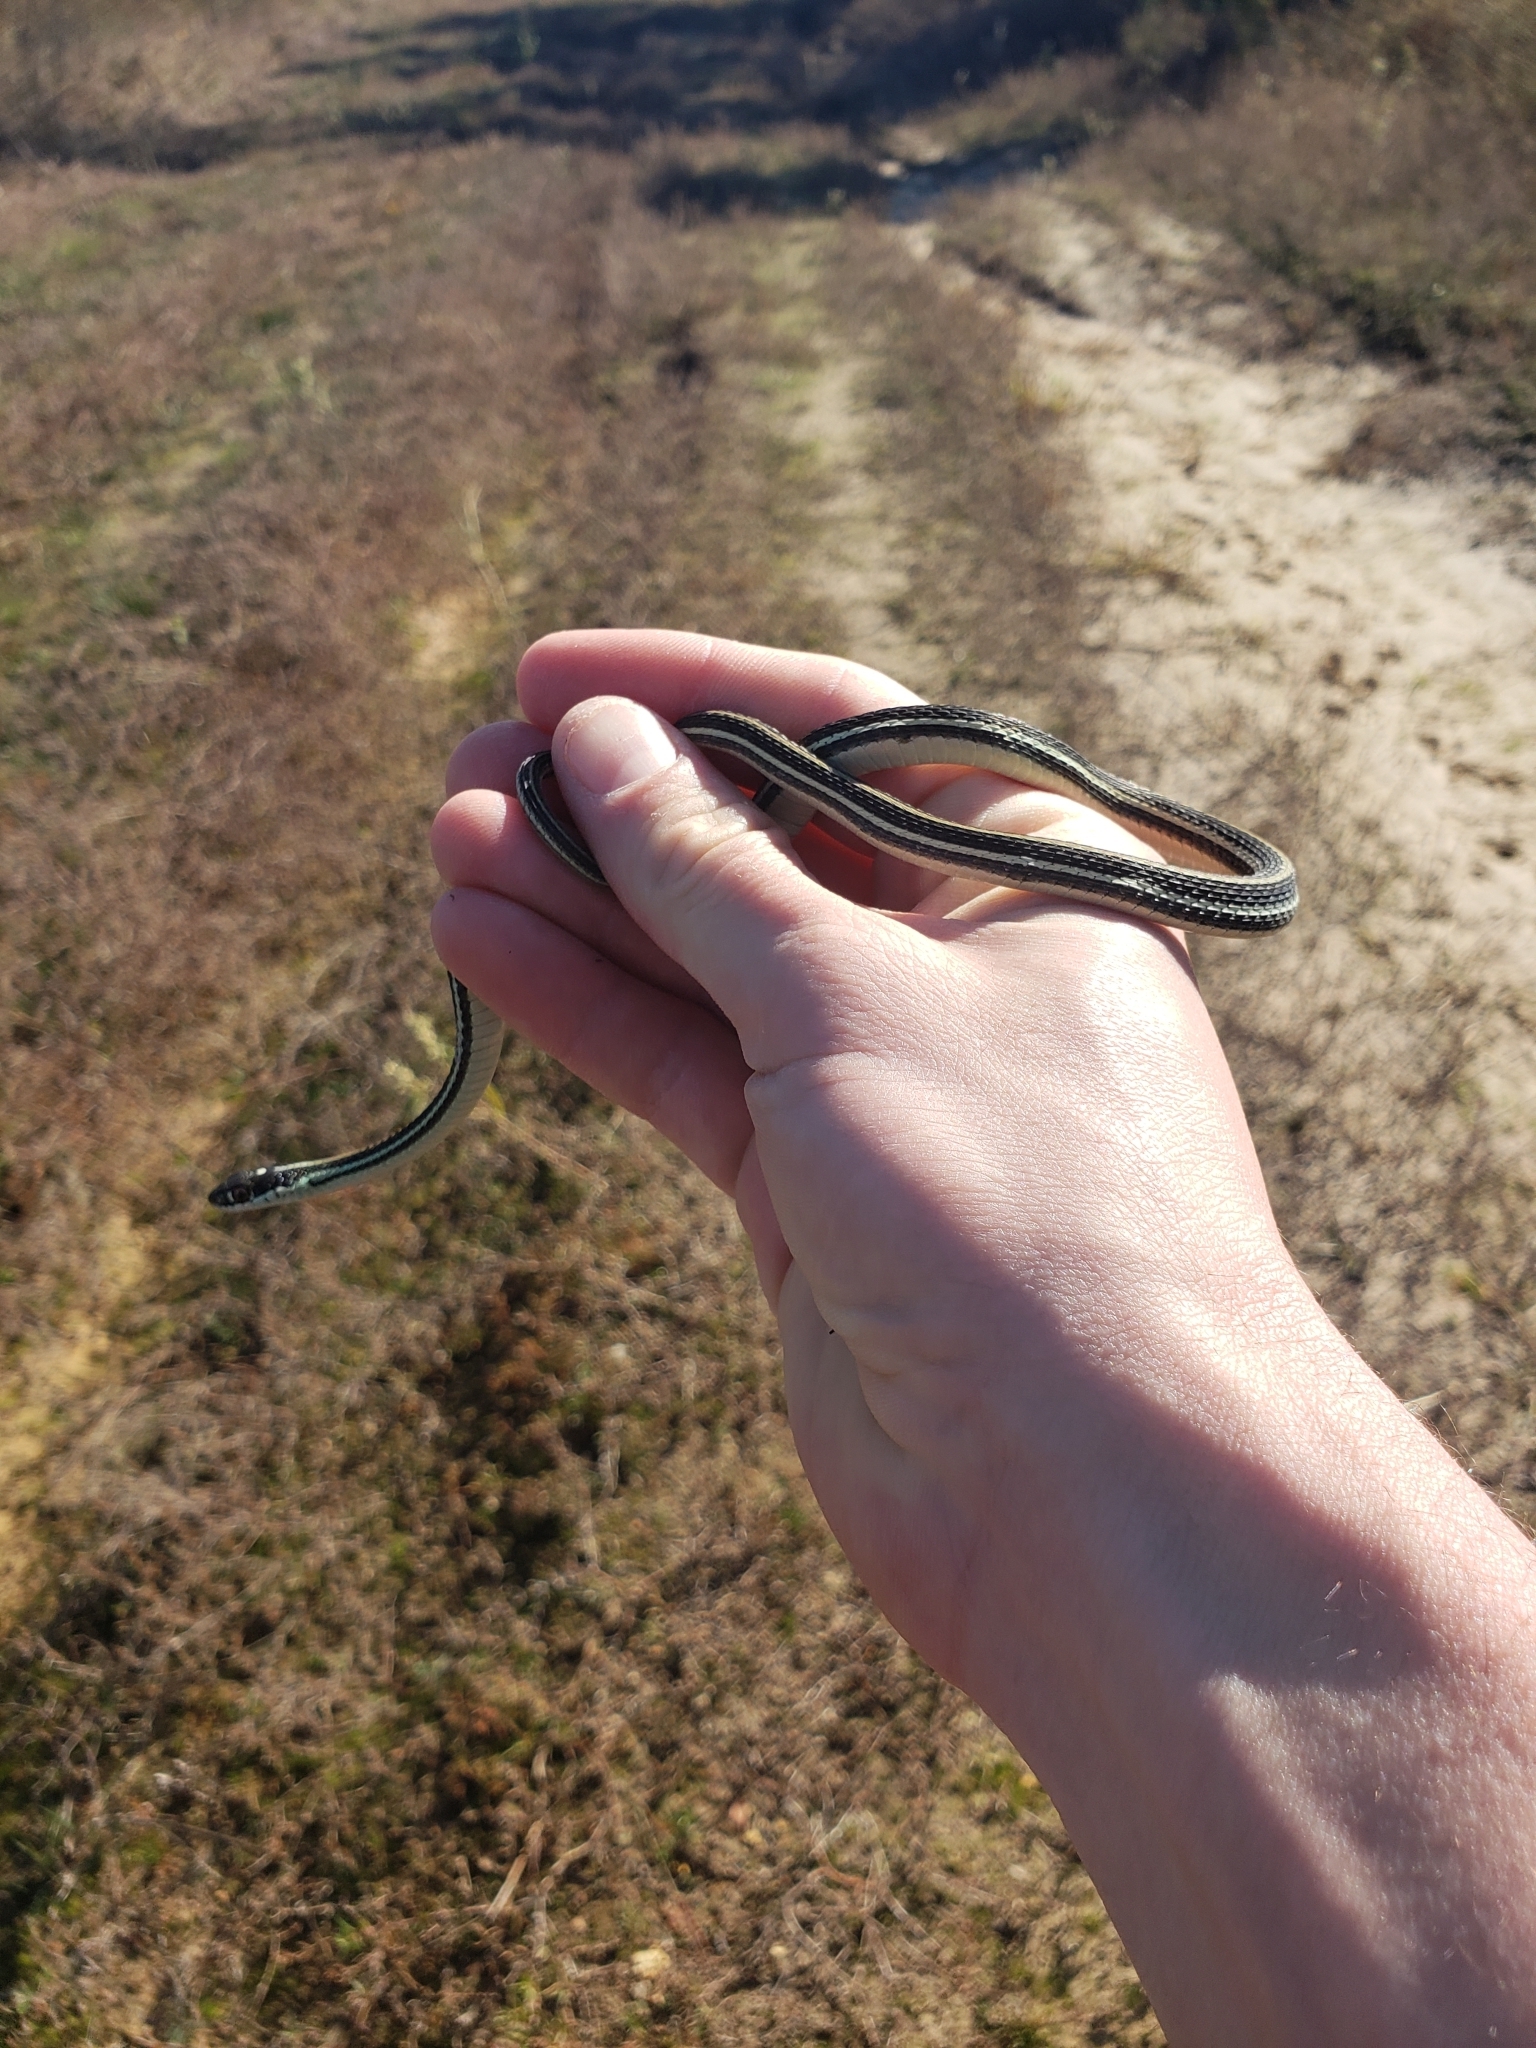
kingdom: Animalia
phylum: Chordata
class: Squamata
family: Colubridae
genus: Thamnophis
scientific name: Thamnophis proximus
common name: Western ribbon snake
